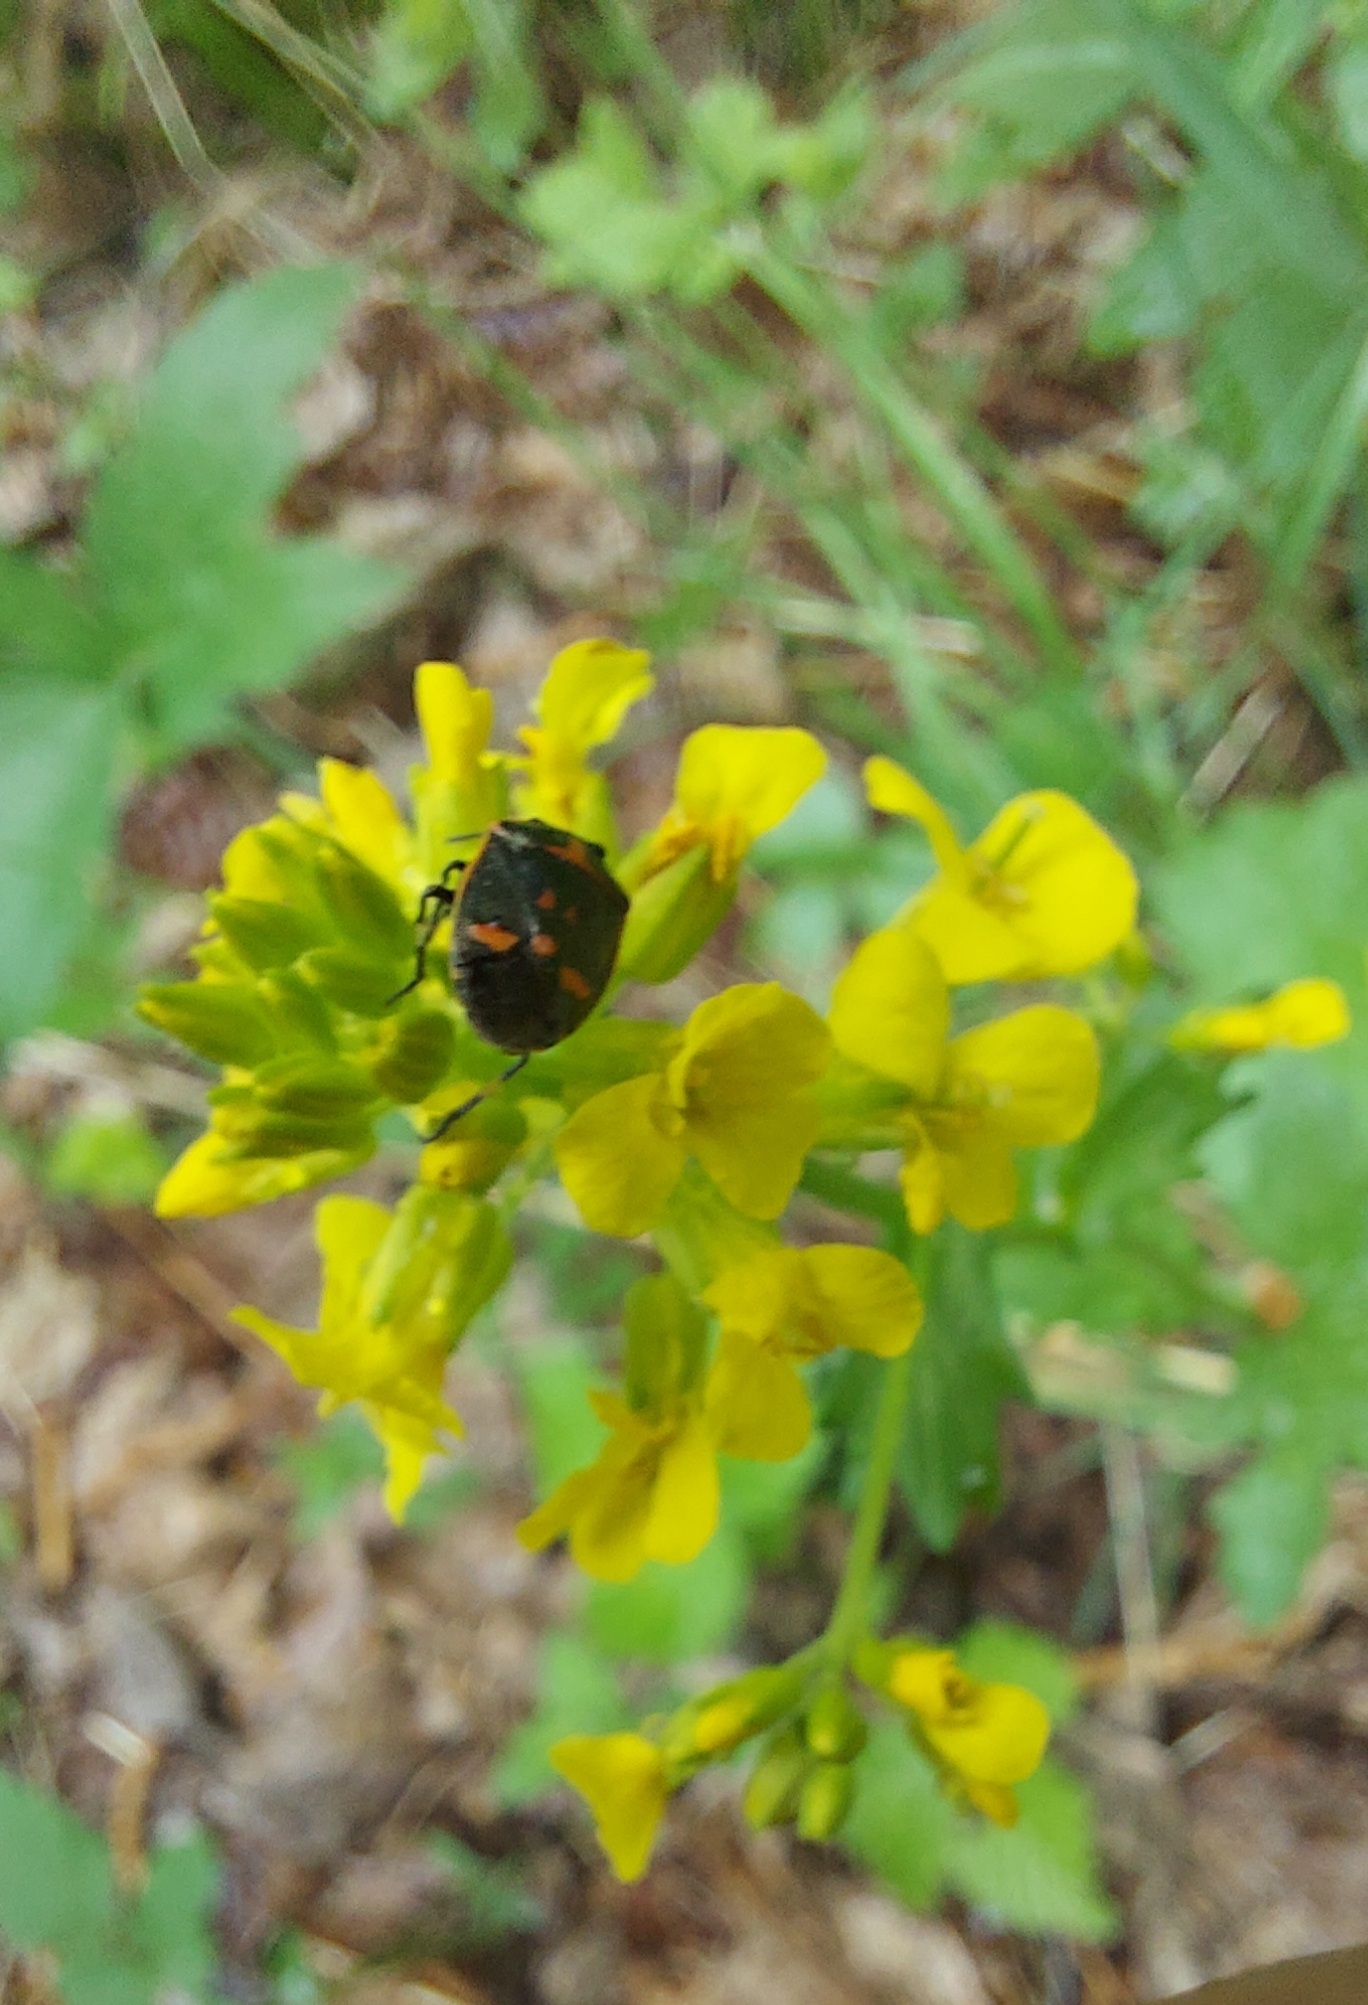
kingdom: Plantae
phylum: Tracheophyta
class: Magnoliopsida
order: Brassicales
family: Brassicaceae
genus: Barbarea
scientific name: Barbarea vulgaris
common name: Cressy-greens
